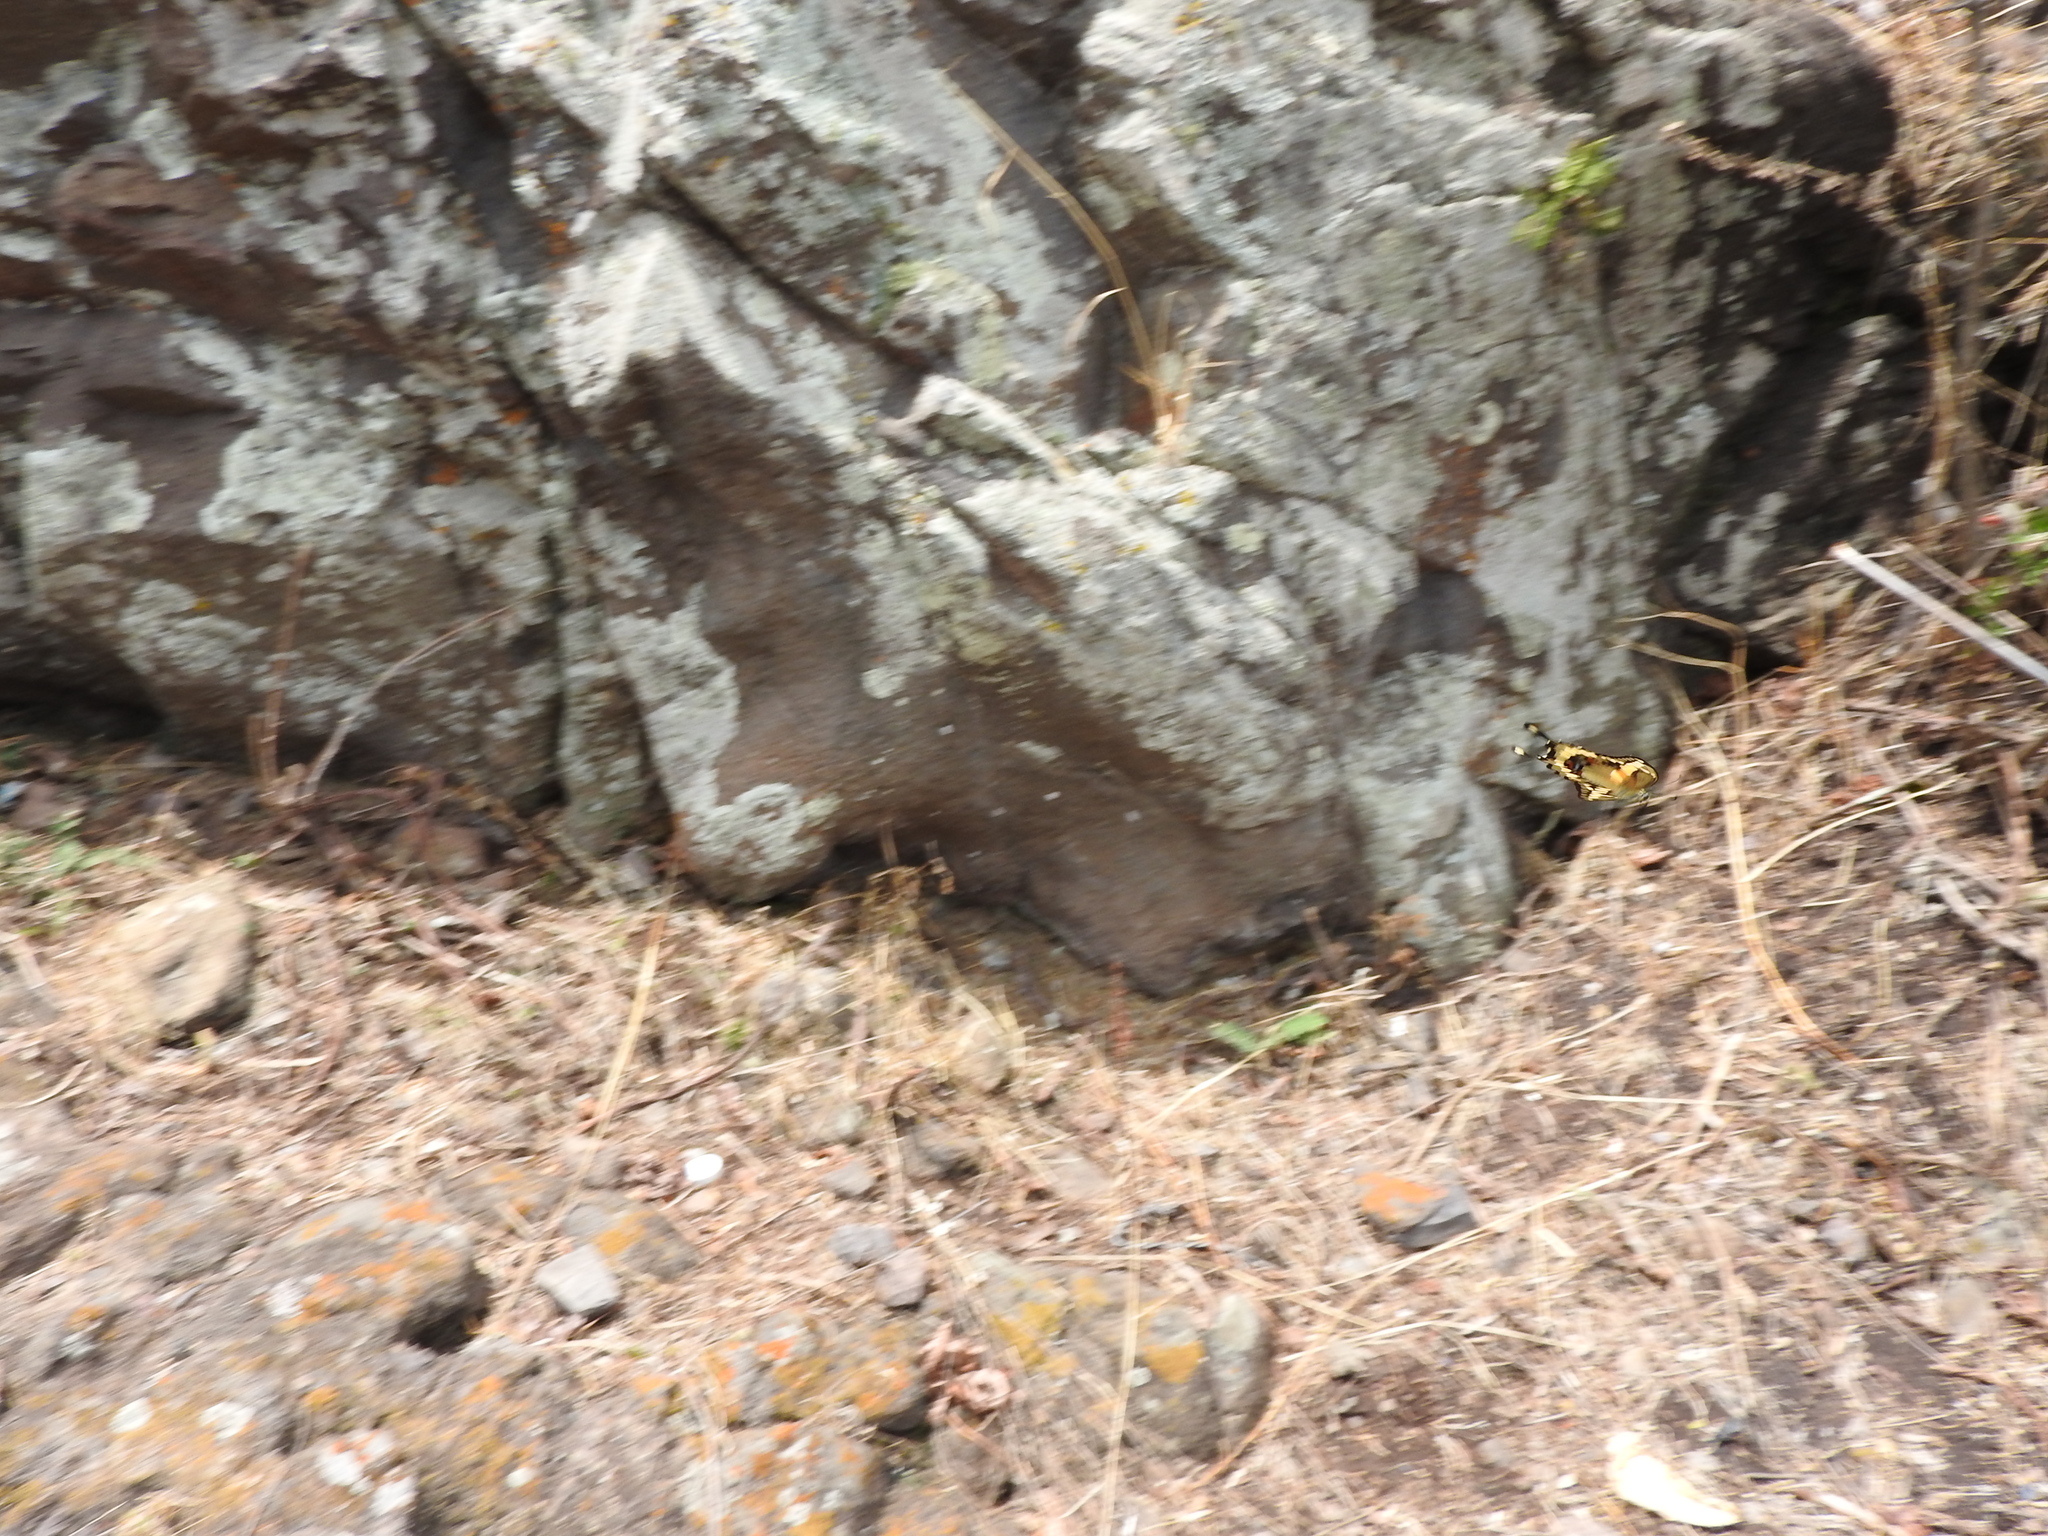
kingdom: Animalia
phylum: Arthropoda
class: Insecta
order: Lepidoptera
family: Papilionidae
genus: Papilio
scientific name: Papilio rumiko
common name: Western giant swallowtail
